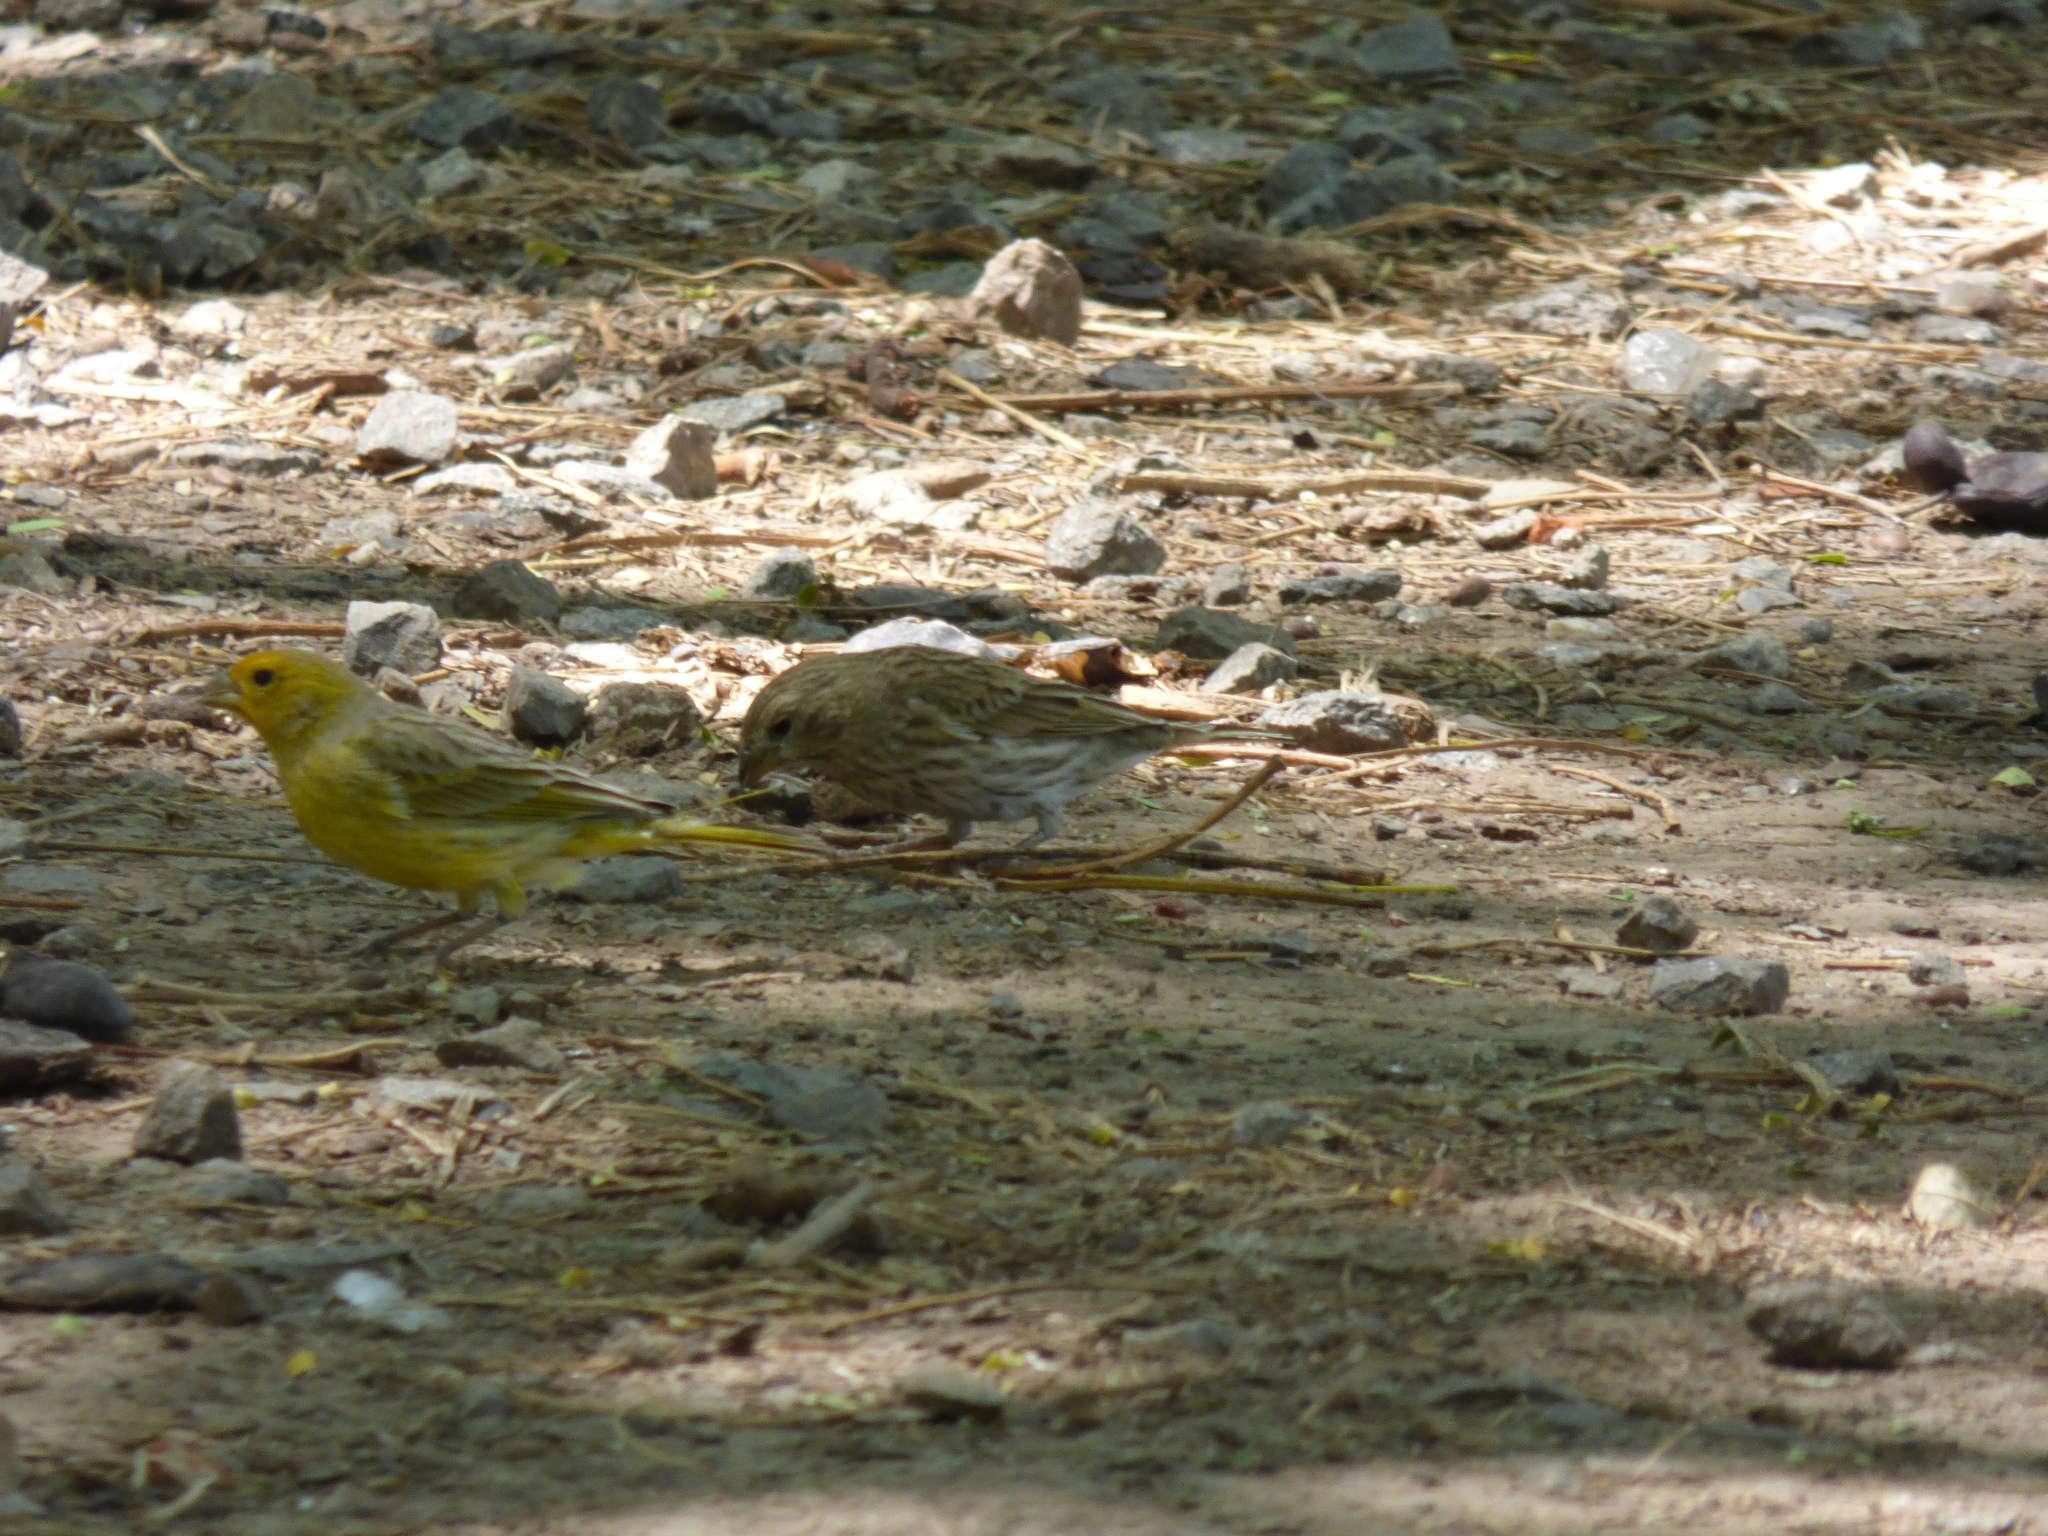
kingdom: Animalia
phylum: Chordata
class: Aves
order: Passeriformes
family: Thraupidae
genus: Sicalis
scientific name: Sicalis flaveola
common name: Saffron finch
